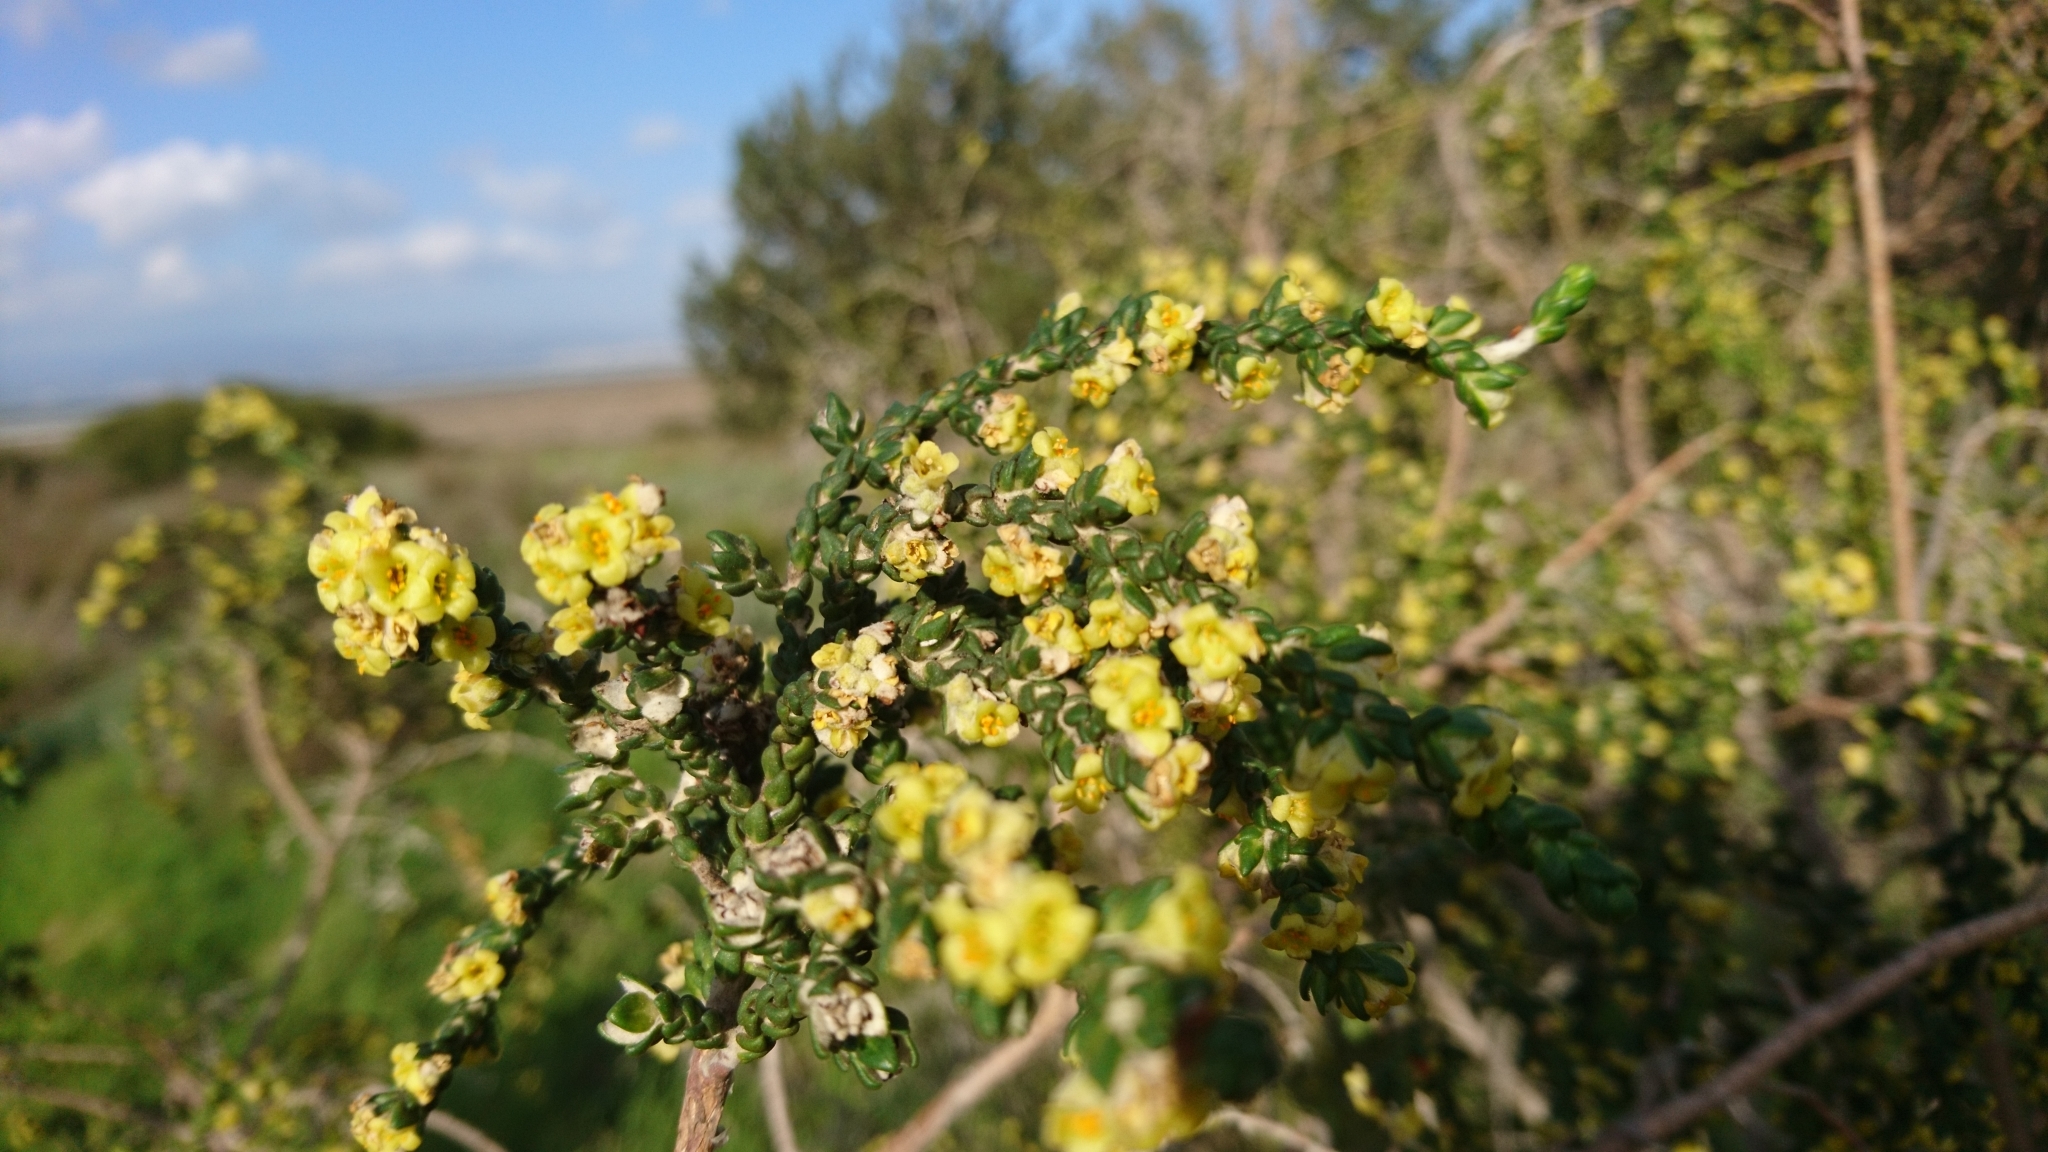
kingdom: Plantae
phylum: Tracheophyta
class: Magnoliopsida
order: Malvales
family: Thymelaeaceae
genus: Thymelaea
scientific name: Thymelaea hirsuta
